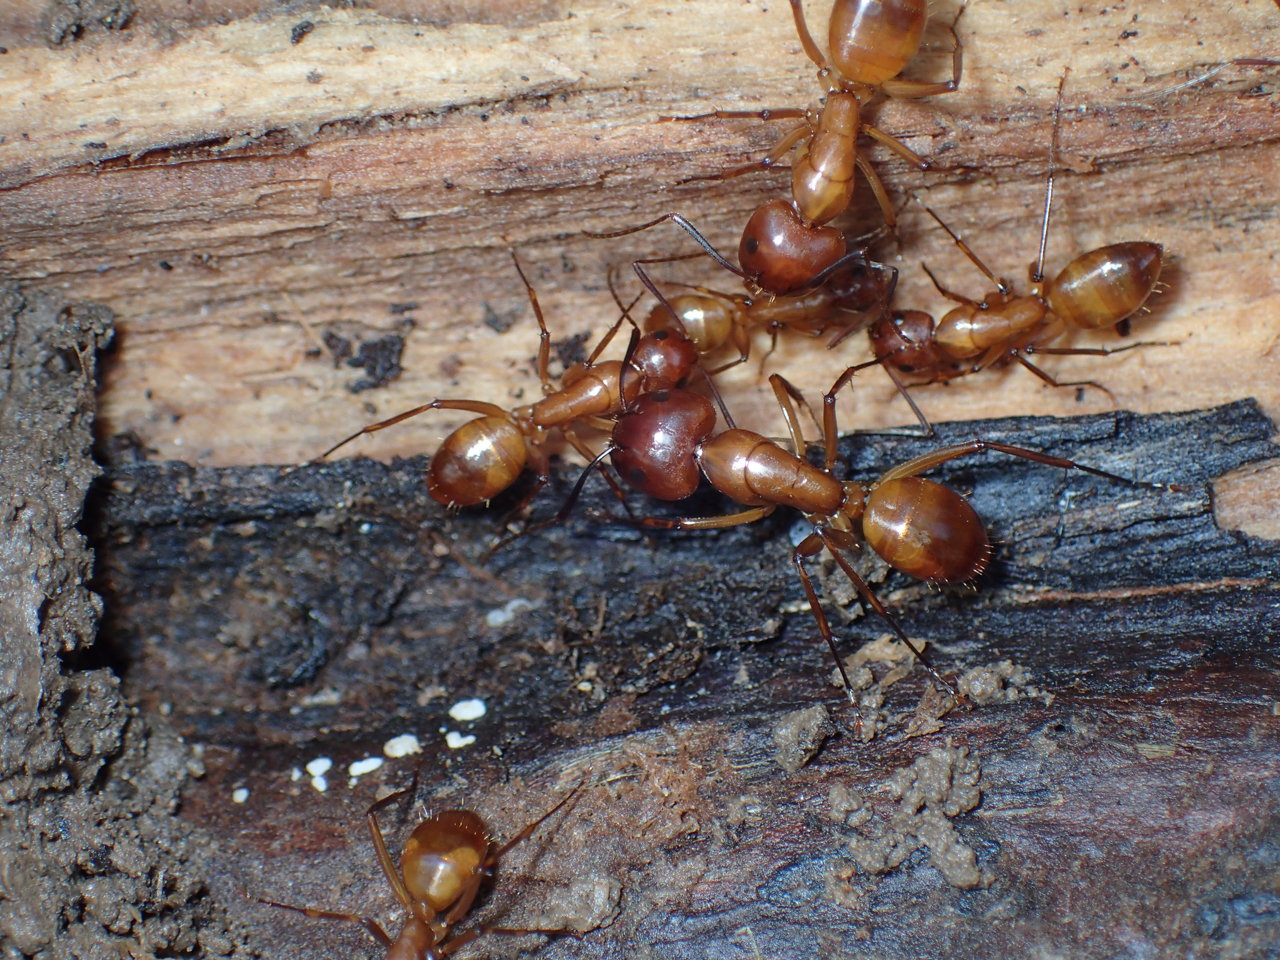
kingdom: Animalia
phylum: Arthropoda
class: Insecta
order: Hymenoptera
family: Formicidae
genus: Camponotus
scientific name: Camponotus castaneus
